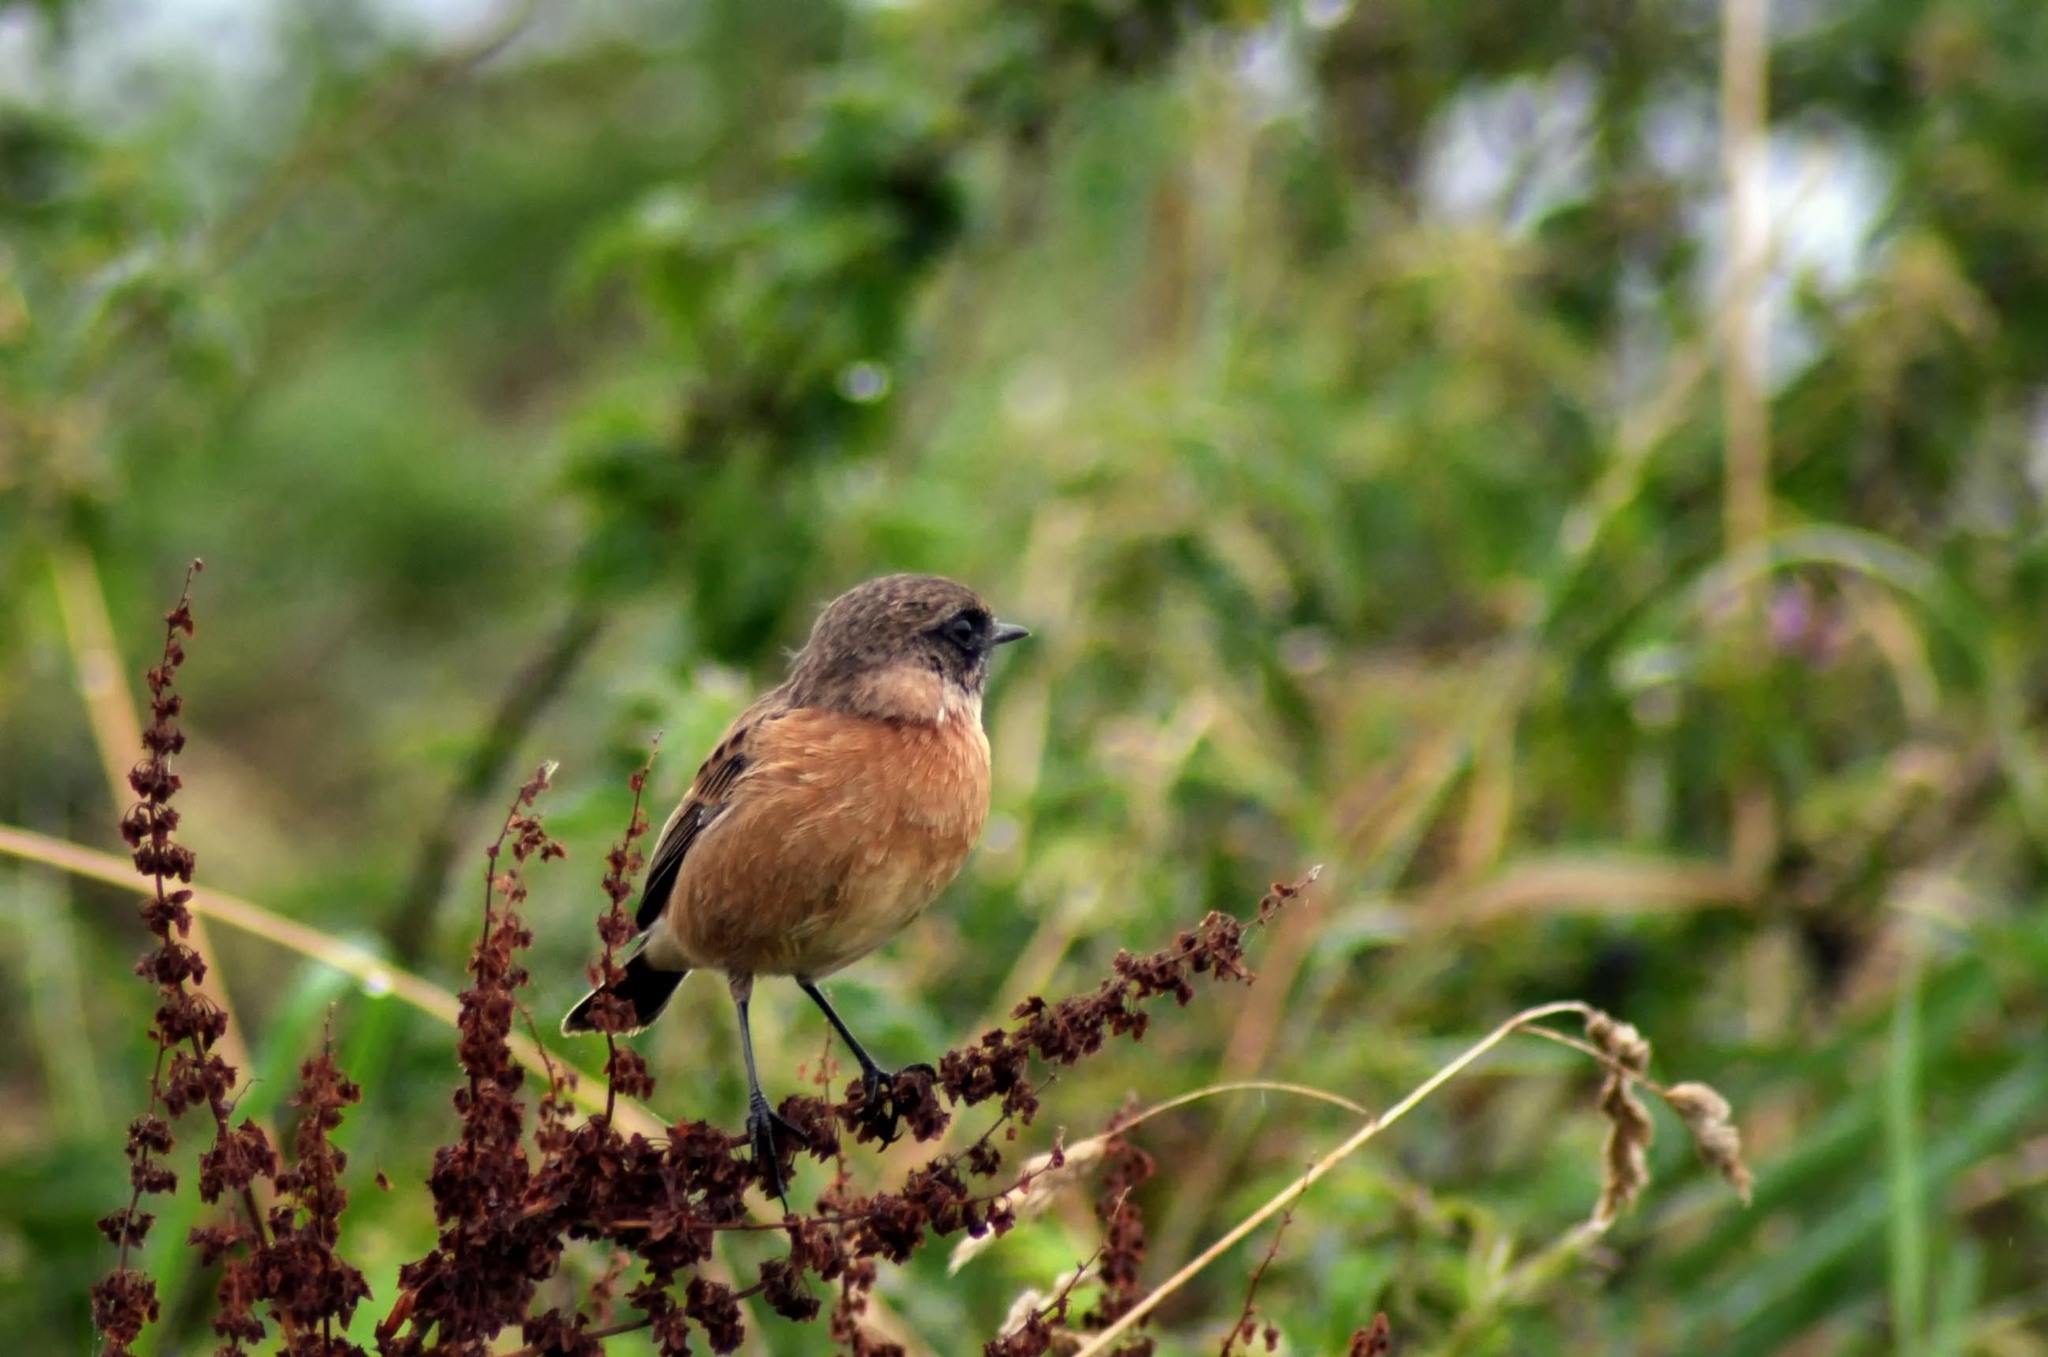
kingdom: Animalia
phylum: Chordata
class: Aves
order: Passeriformes
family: Muscicapidae
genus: Saxicola
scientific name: Saxicola rubicola
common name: European stonechat
